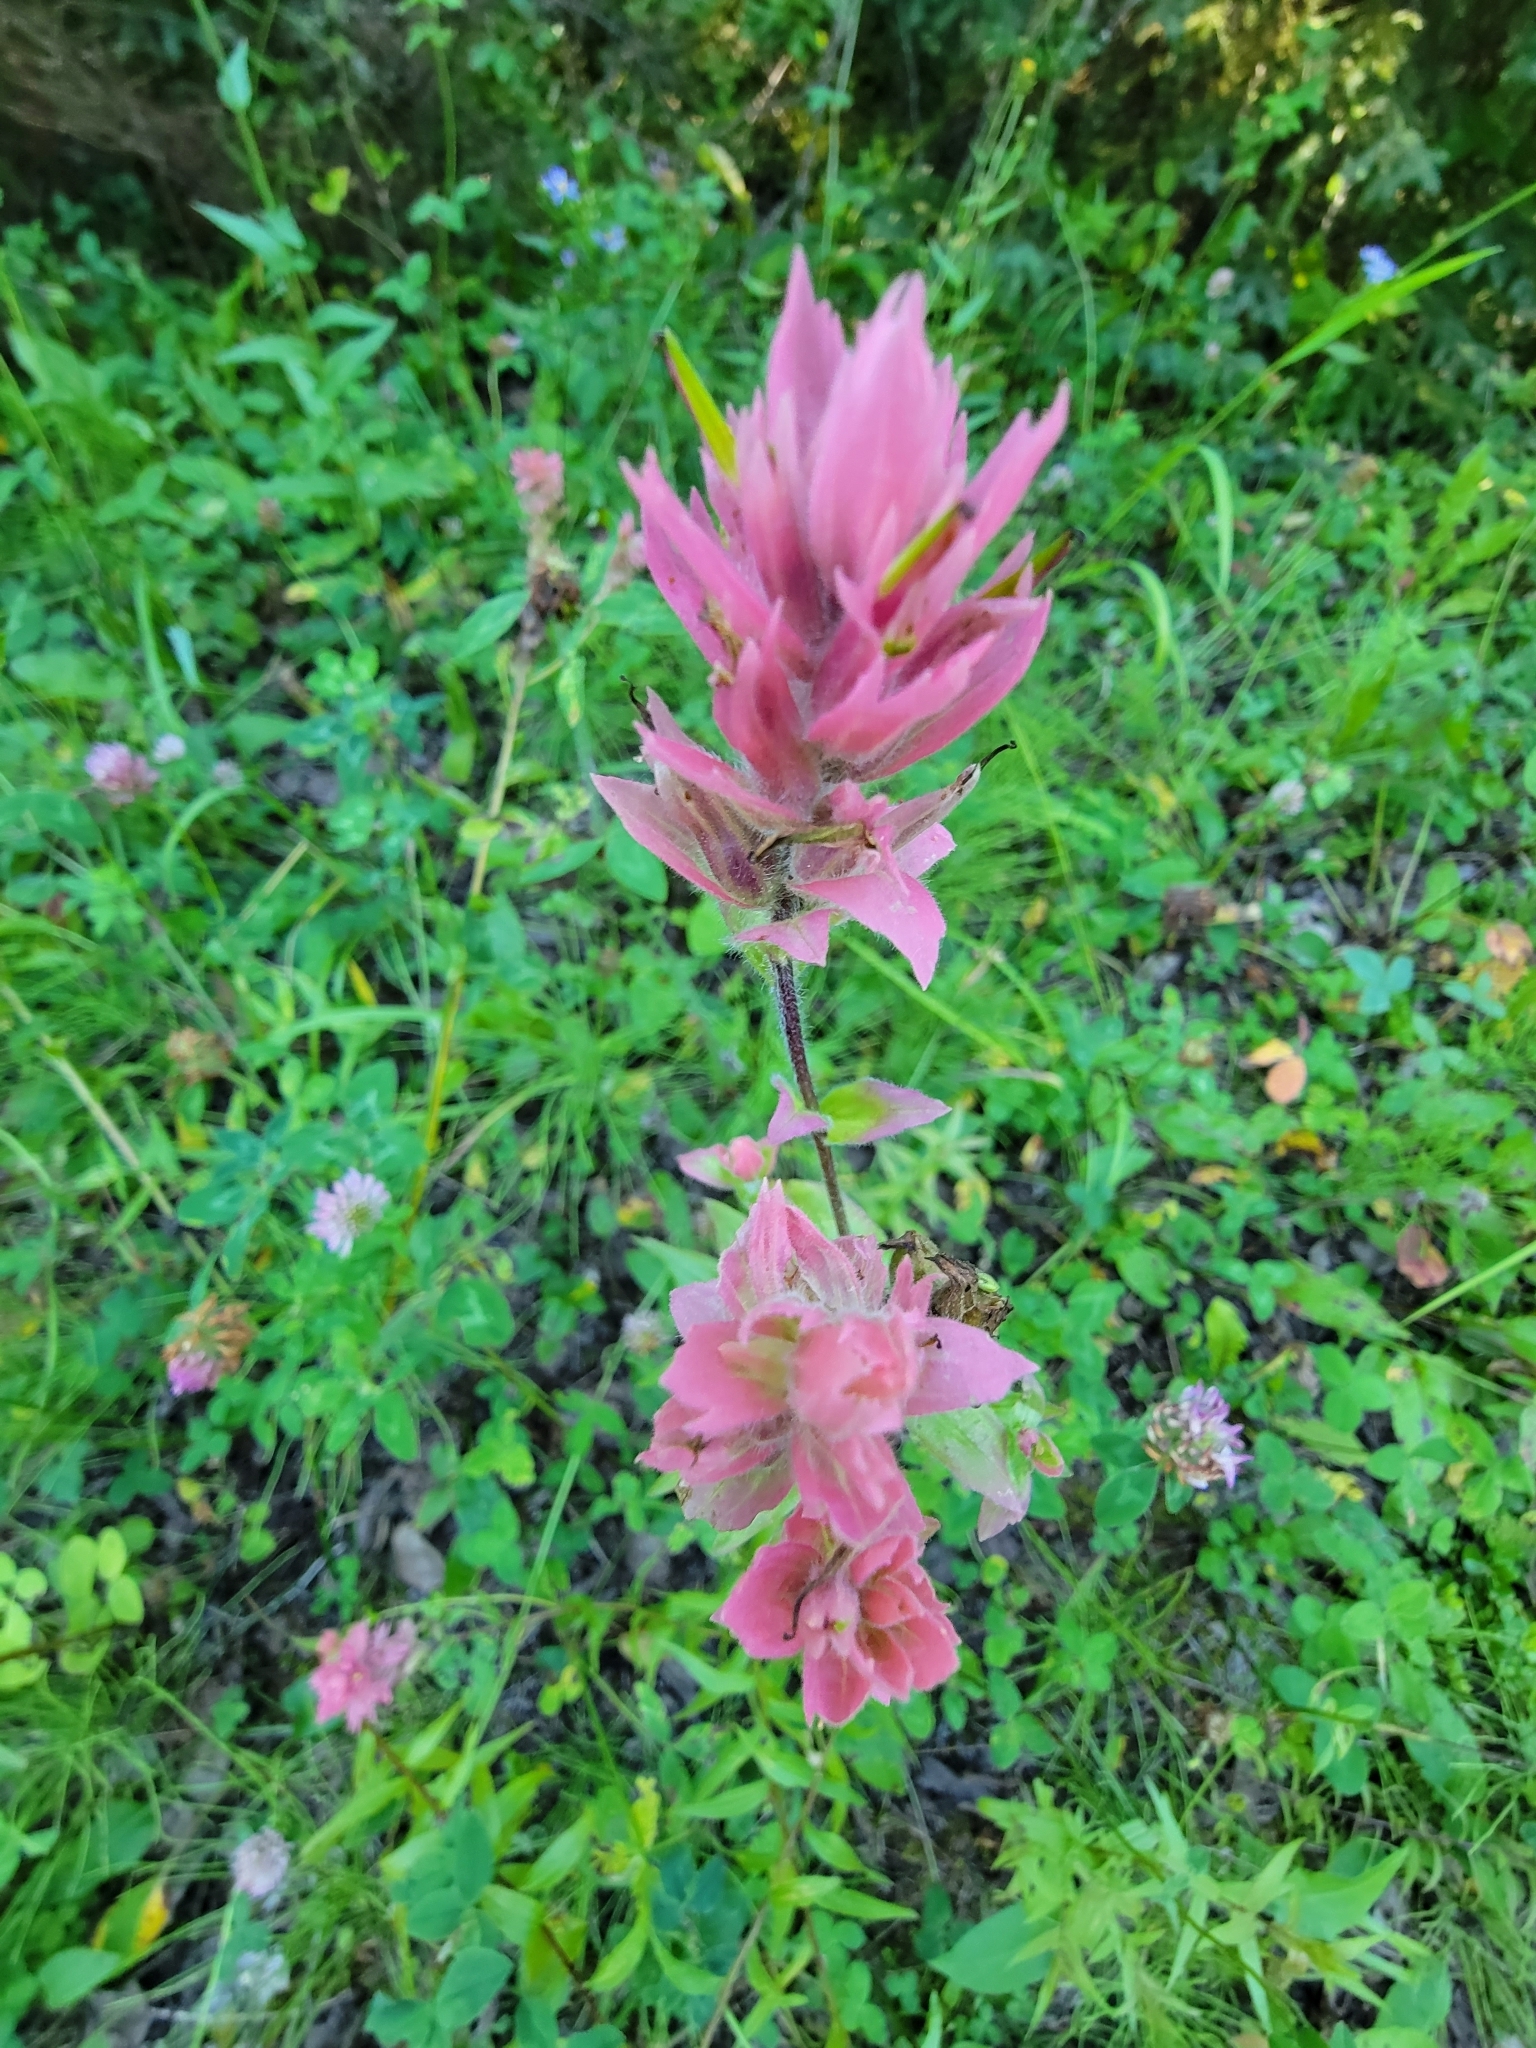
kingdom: Plantae
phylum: Tracheophyta
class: Magnoliopsida
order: Lamiales
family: Orobanchaceae
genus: Castilleja
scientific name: Castilleja miniata
